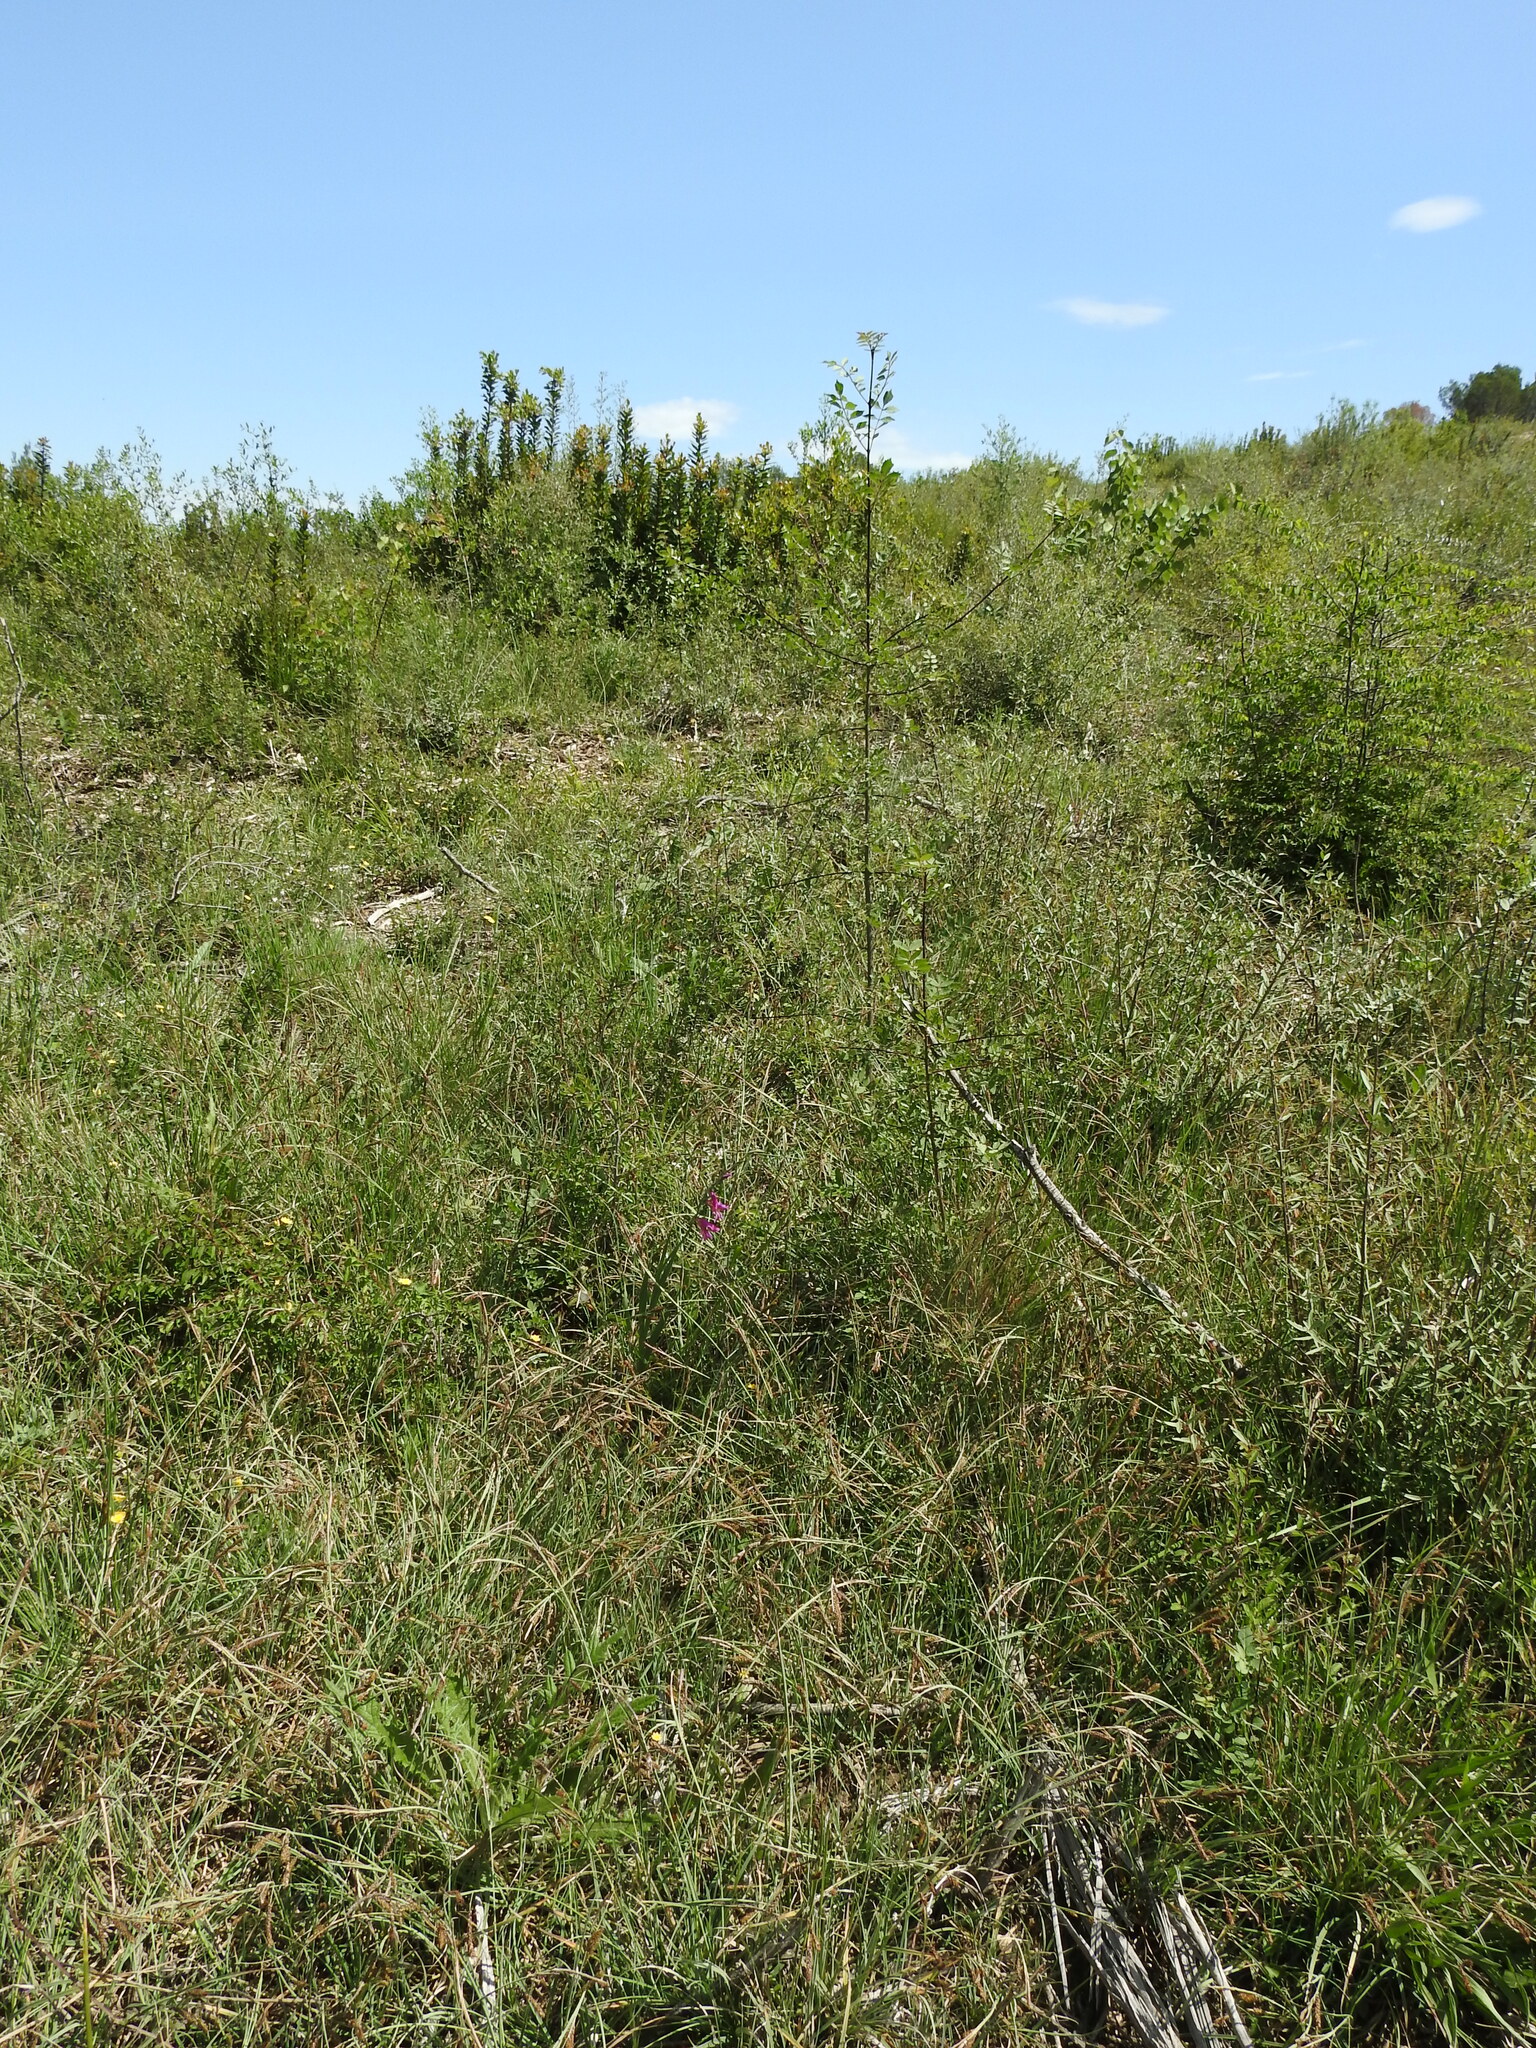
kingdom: Plantae
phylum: Tracheophyta
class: Liliopsida
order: Asparagales
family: Iridaceae
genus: Gladiolus
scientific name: Gladiolus dubius
